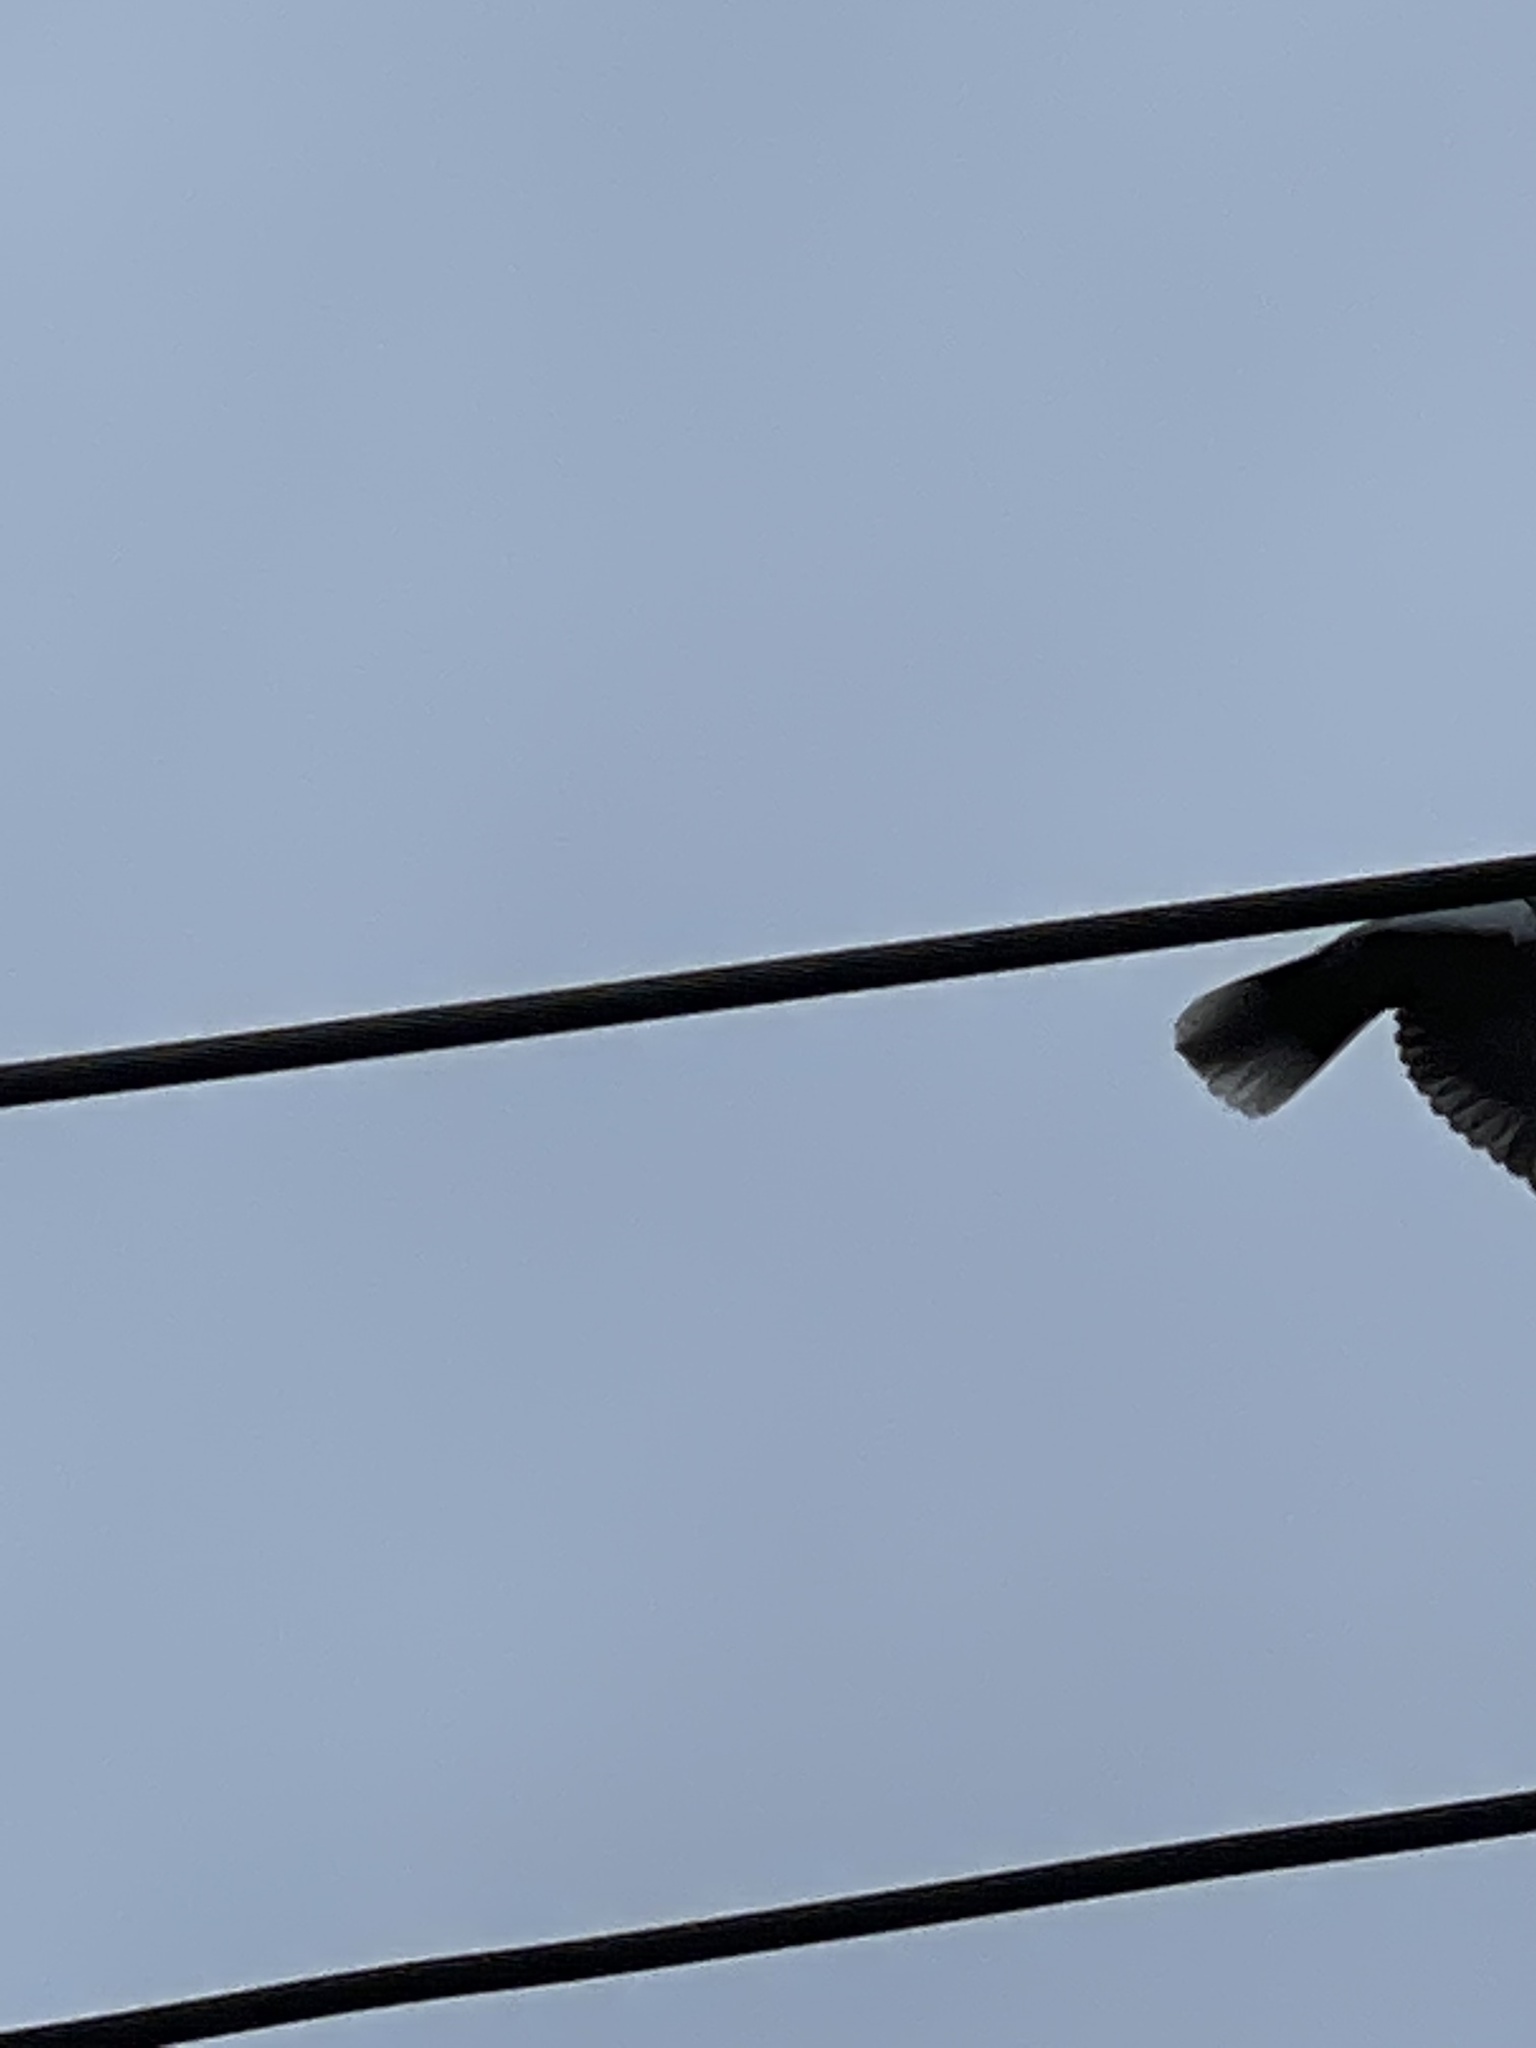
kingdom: Animalia
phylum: Chordata
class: Aves
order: Columbiformes
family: Columbidae
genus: Streptopelia
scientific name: Streptopelia decaocto
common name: Eurasian collared dove
